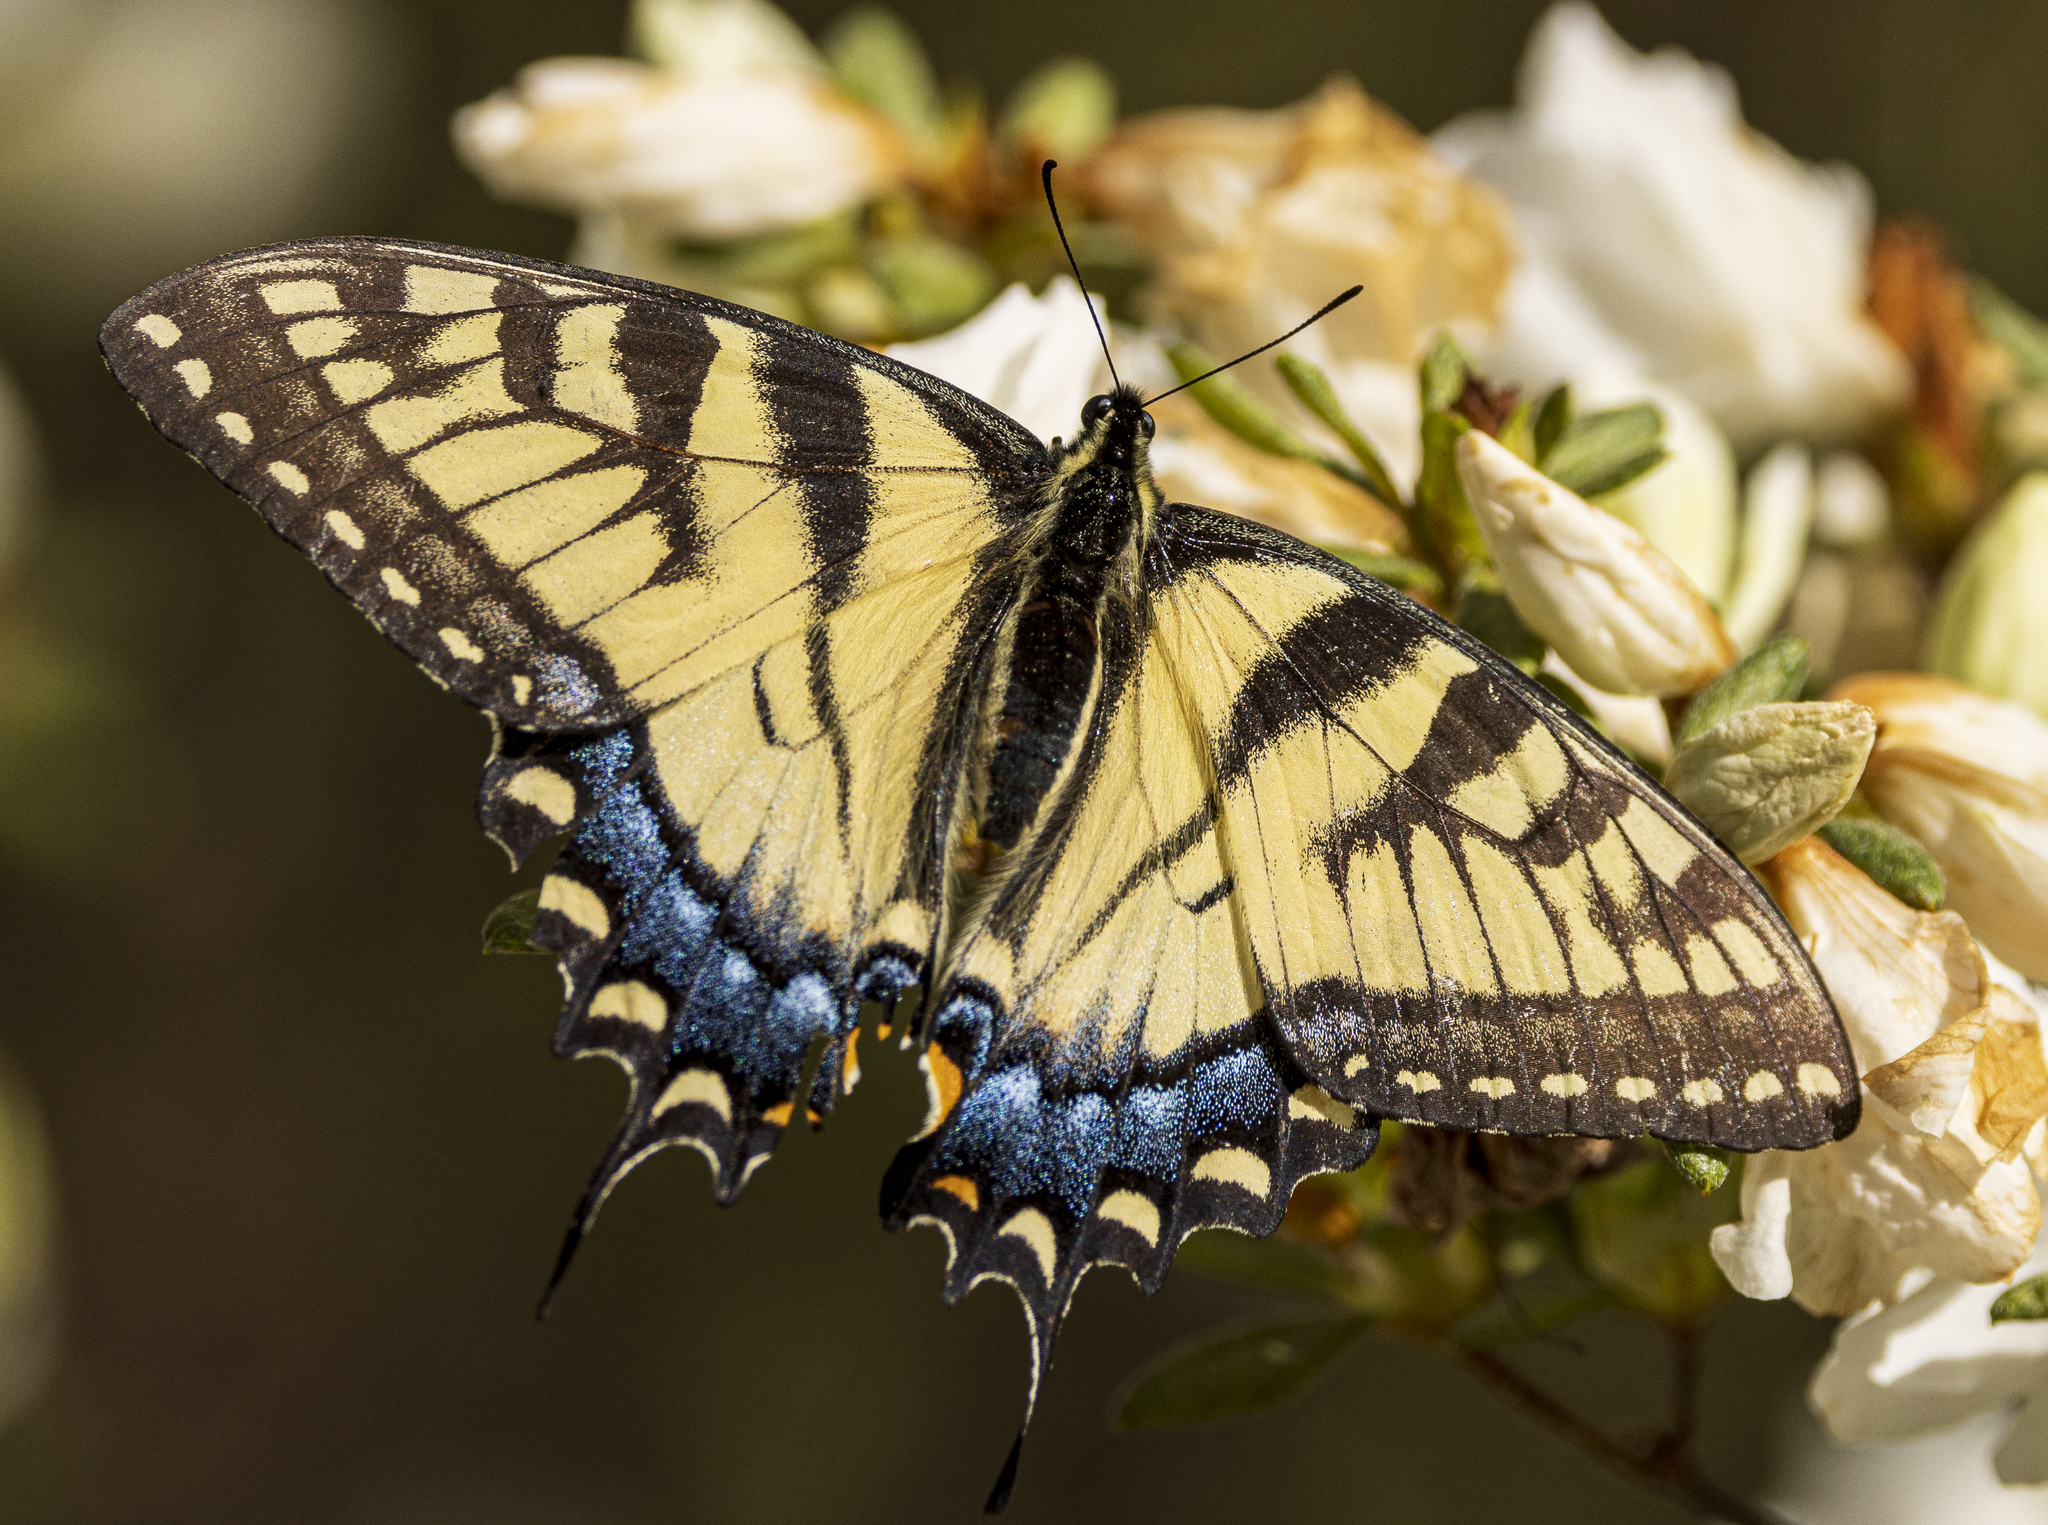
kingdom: Animalia
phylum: Arthropoda
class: Insecta
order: Lepidoptera
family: Papilionidae
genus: Papilio
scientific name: Papilio glaucus
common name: Tiger swallowtail
